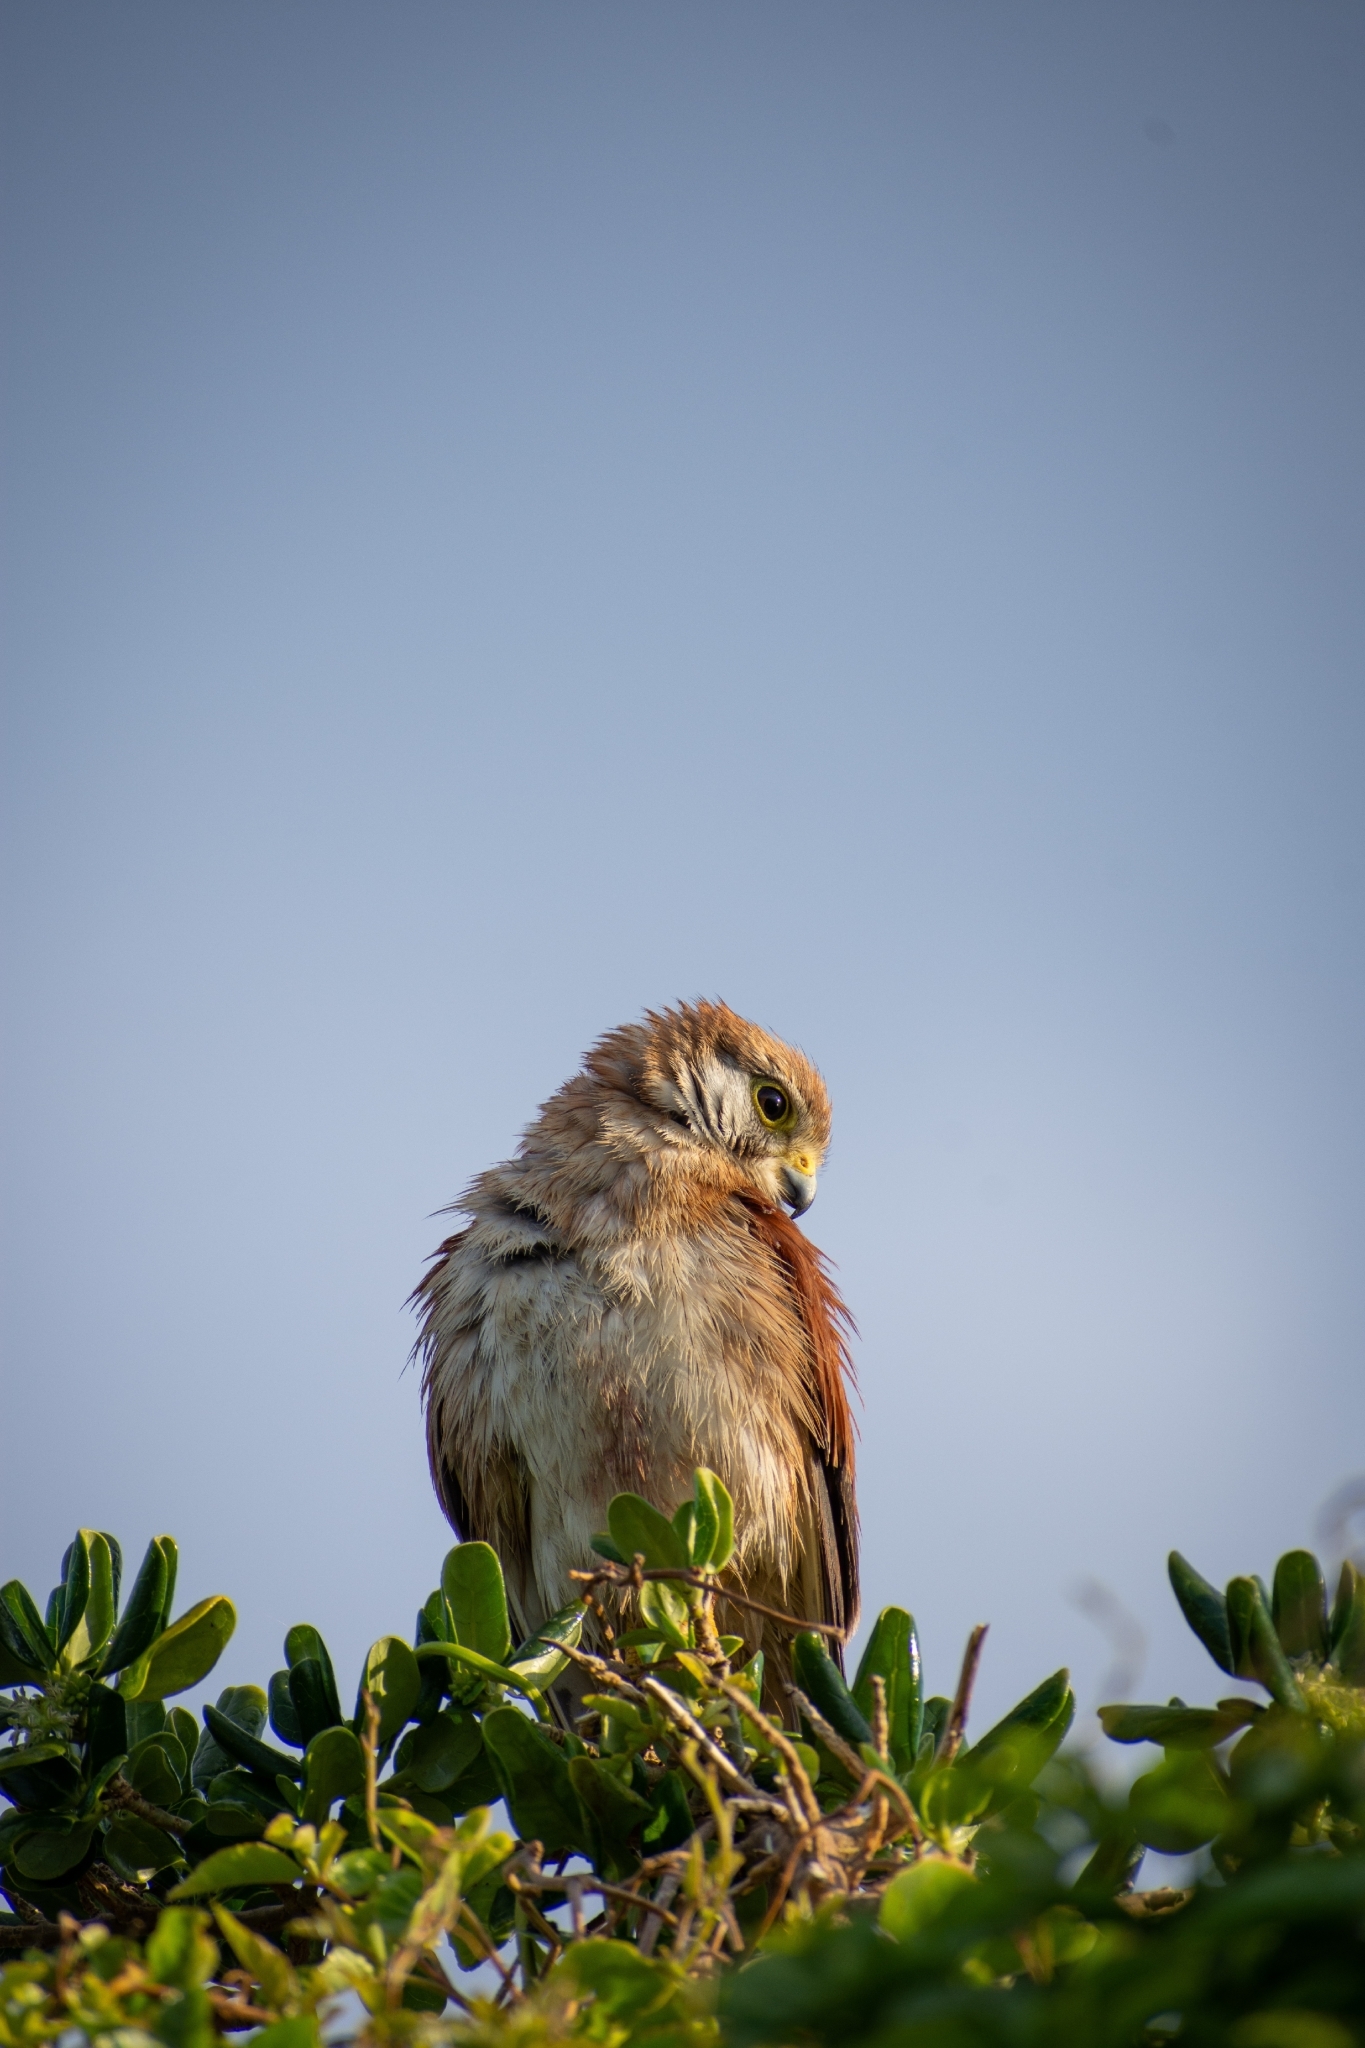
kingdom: Animalia
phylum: Chordata
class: Aves
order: Falconiformes
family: Falconidae
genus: Falco
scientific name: Falco cenchroides
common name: Nankeen kestrel
